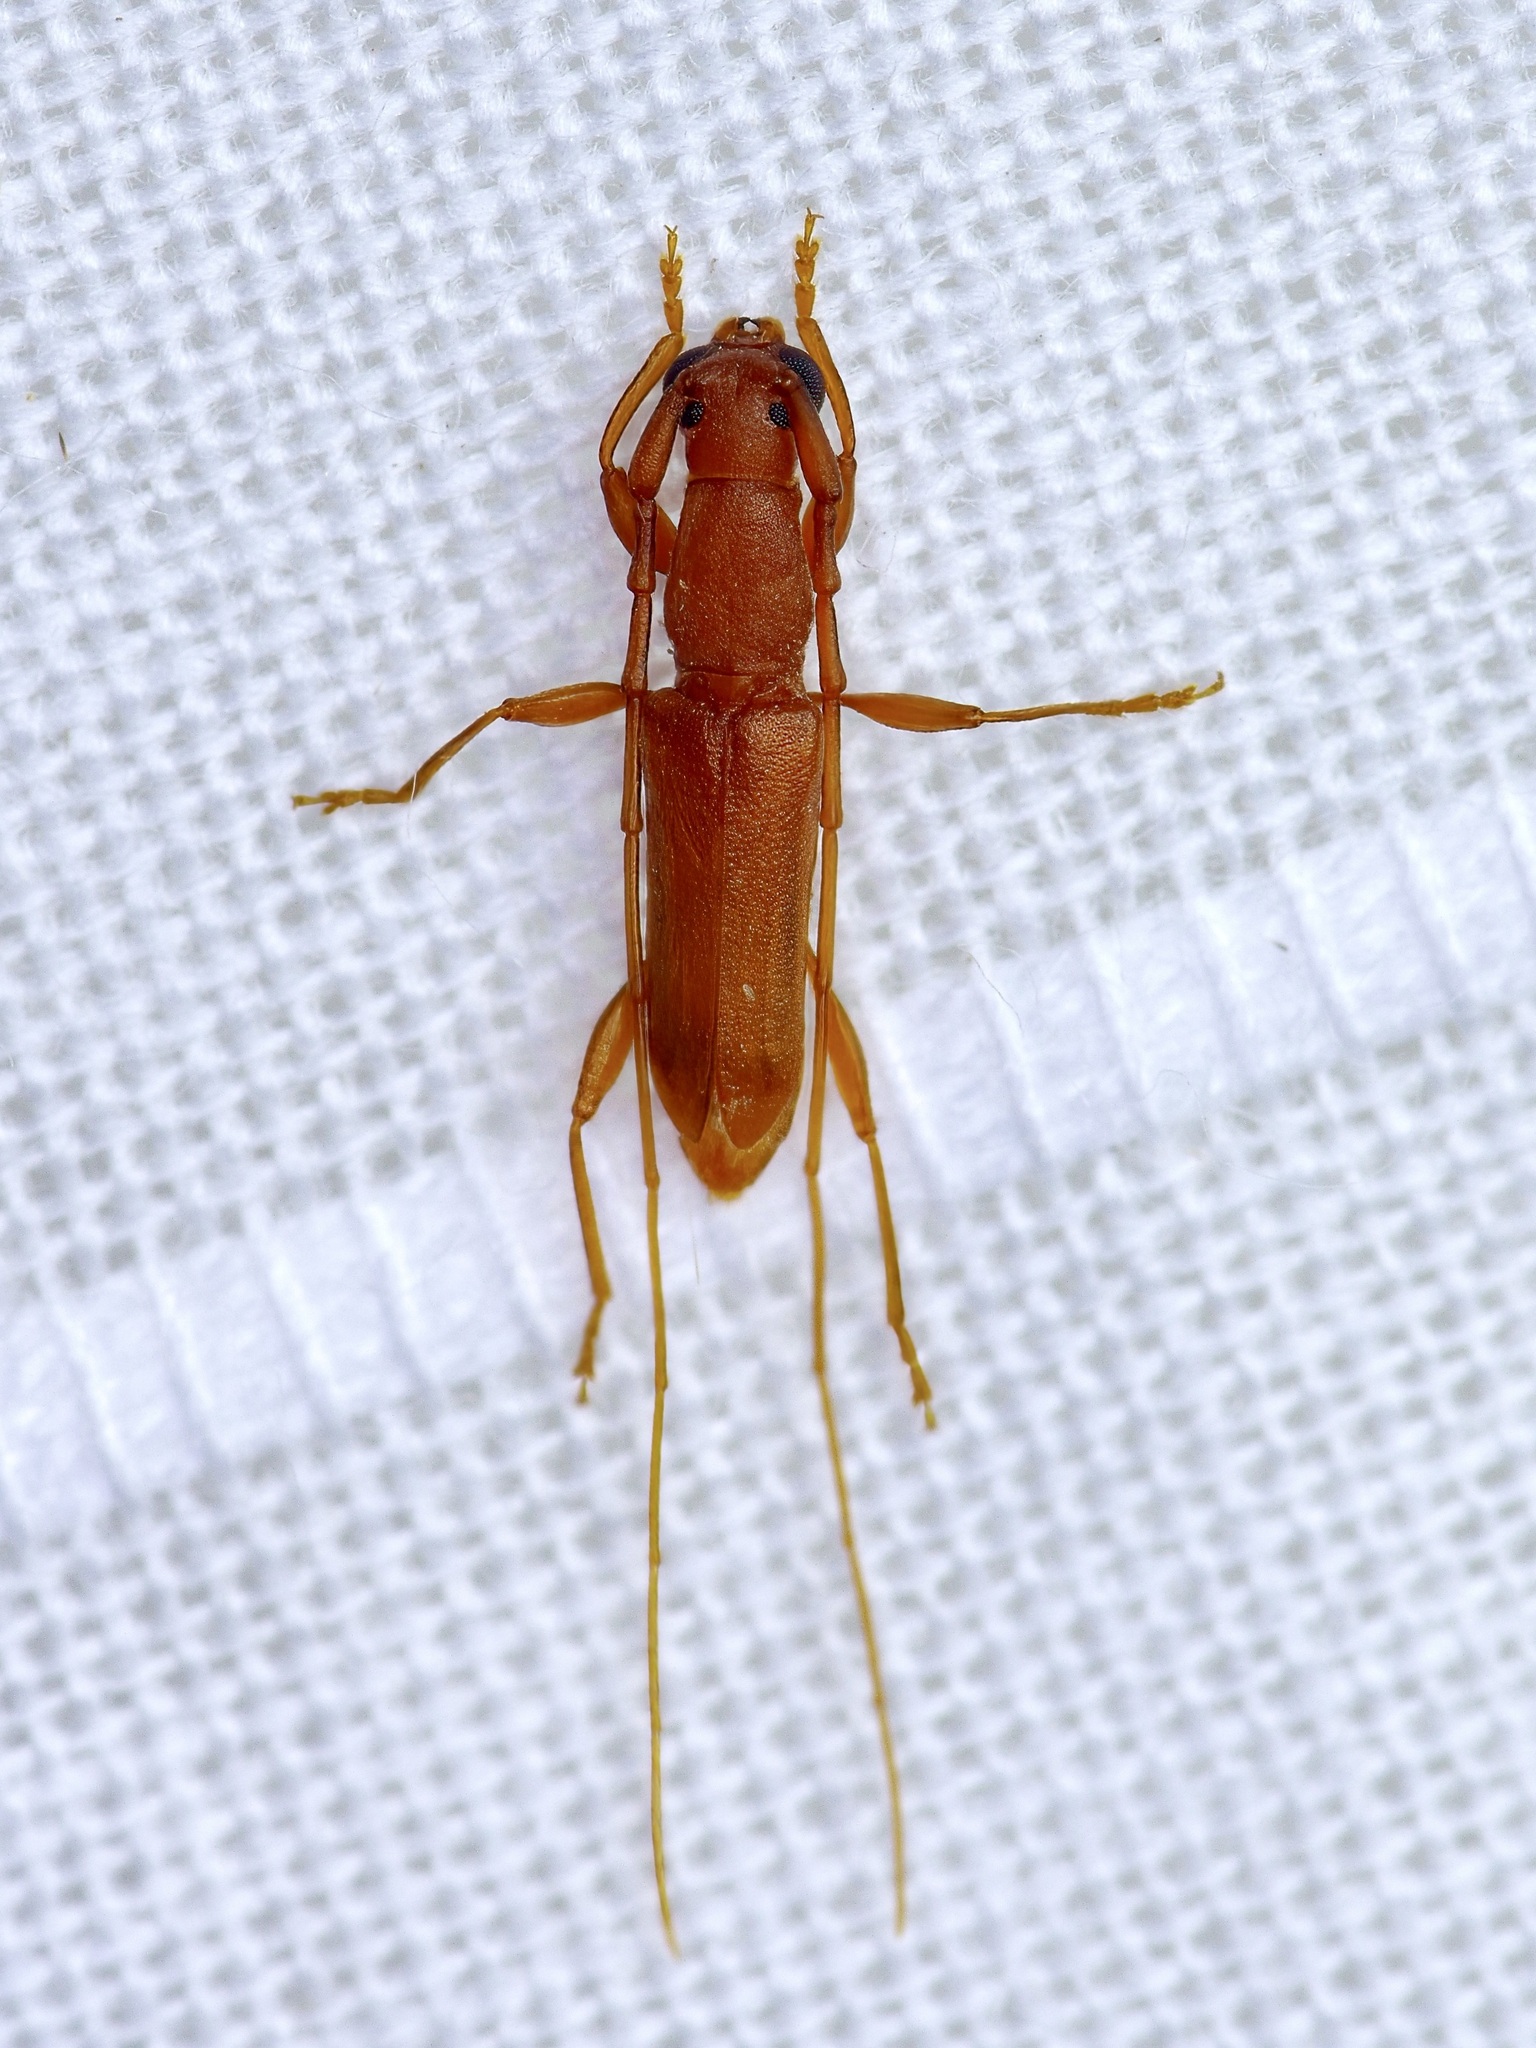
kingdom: Animalia
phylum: Arthropoda
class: Insecta
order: Coleoptera
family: Cerambycidae
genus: Hypexilis
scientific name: Hypexilis pallida
